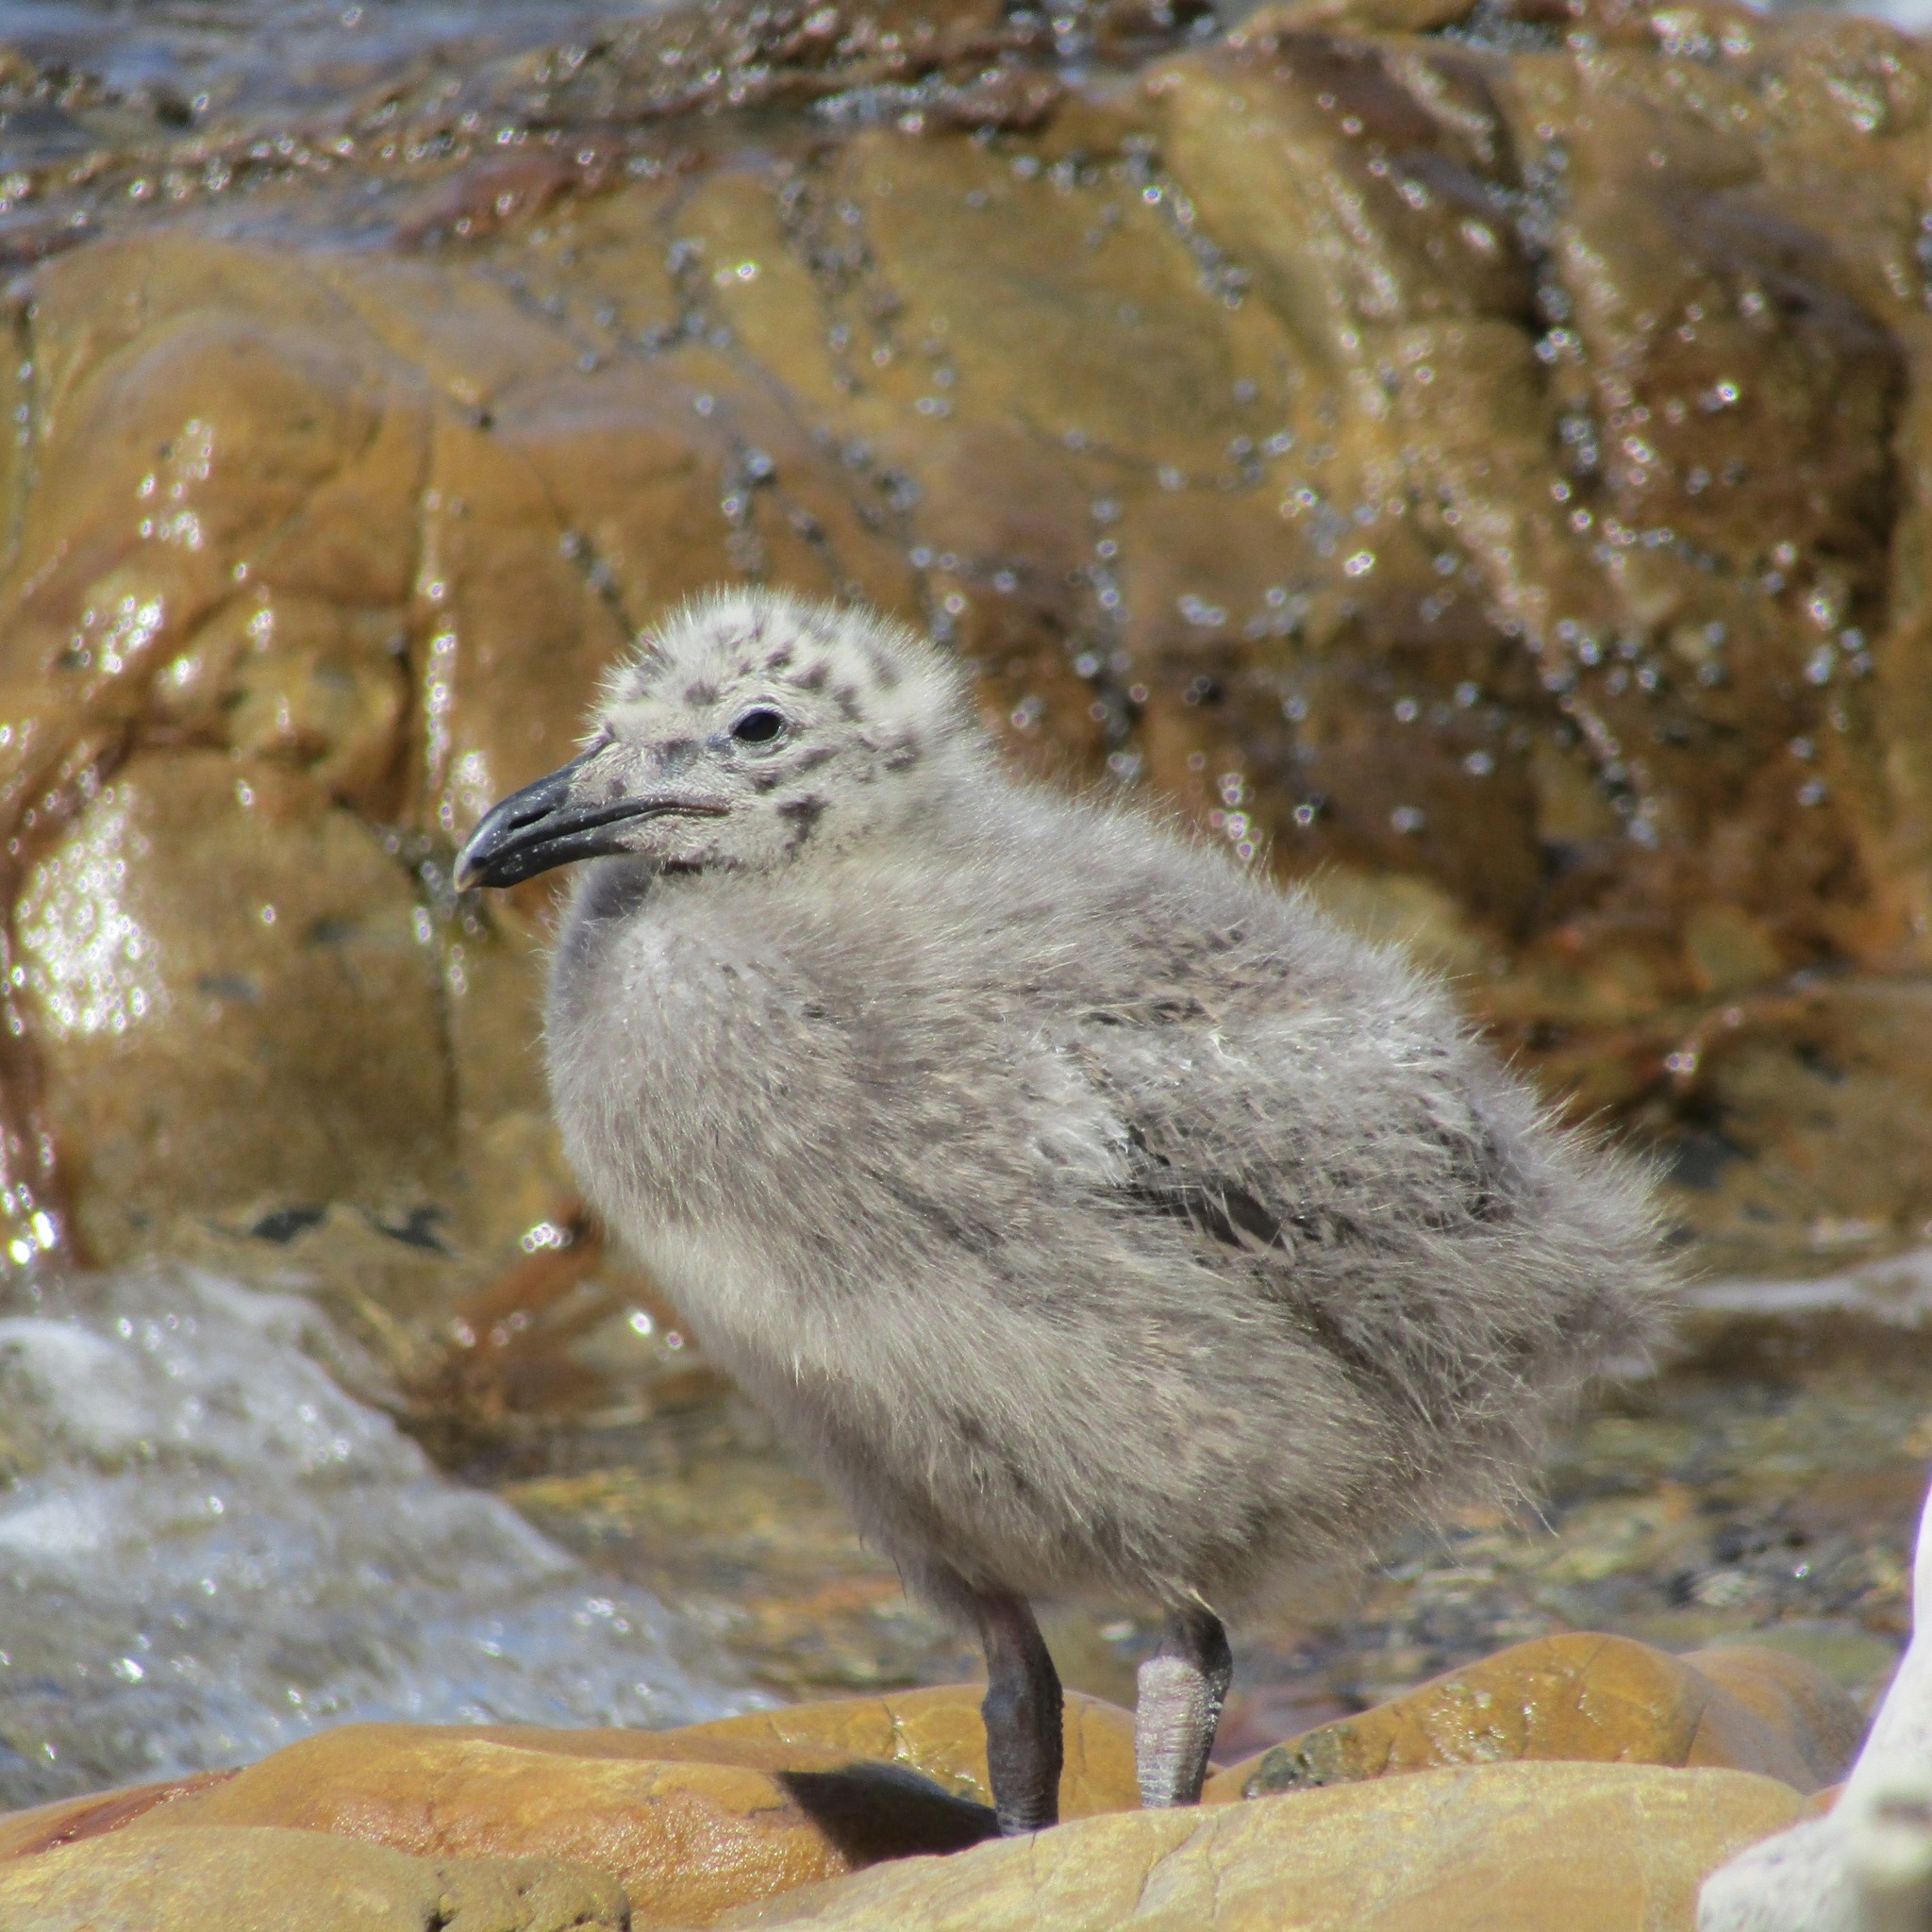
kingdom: Animalia
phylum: Chordata
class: Aves
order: Charadriiformes
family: Laridae
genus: Larus
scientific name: Larus dominicanus
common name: Kelp gull
